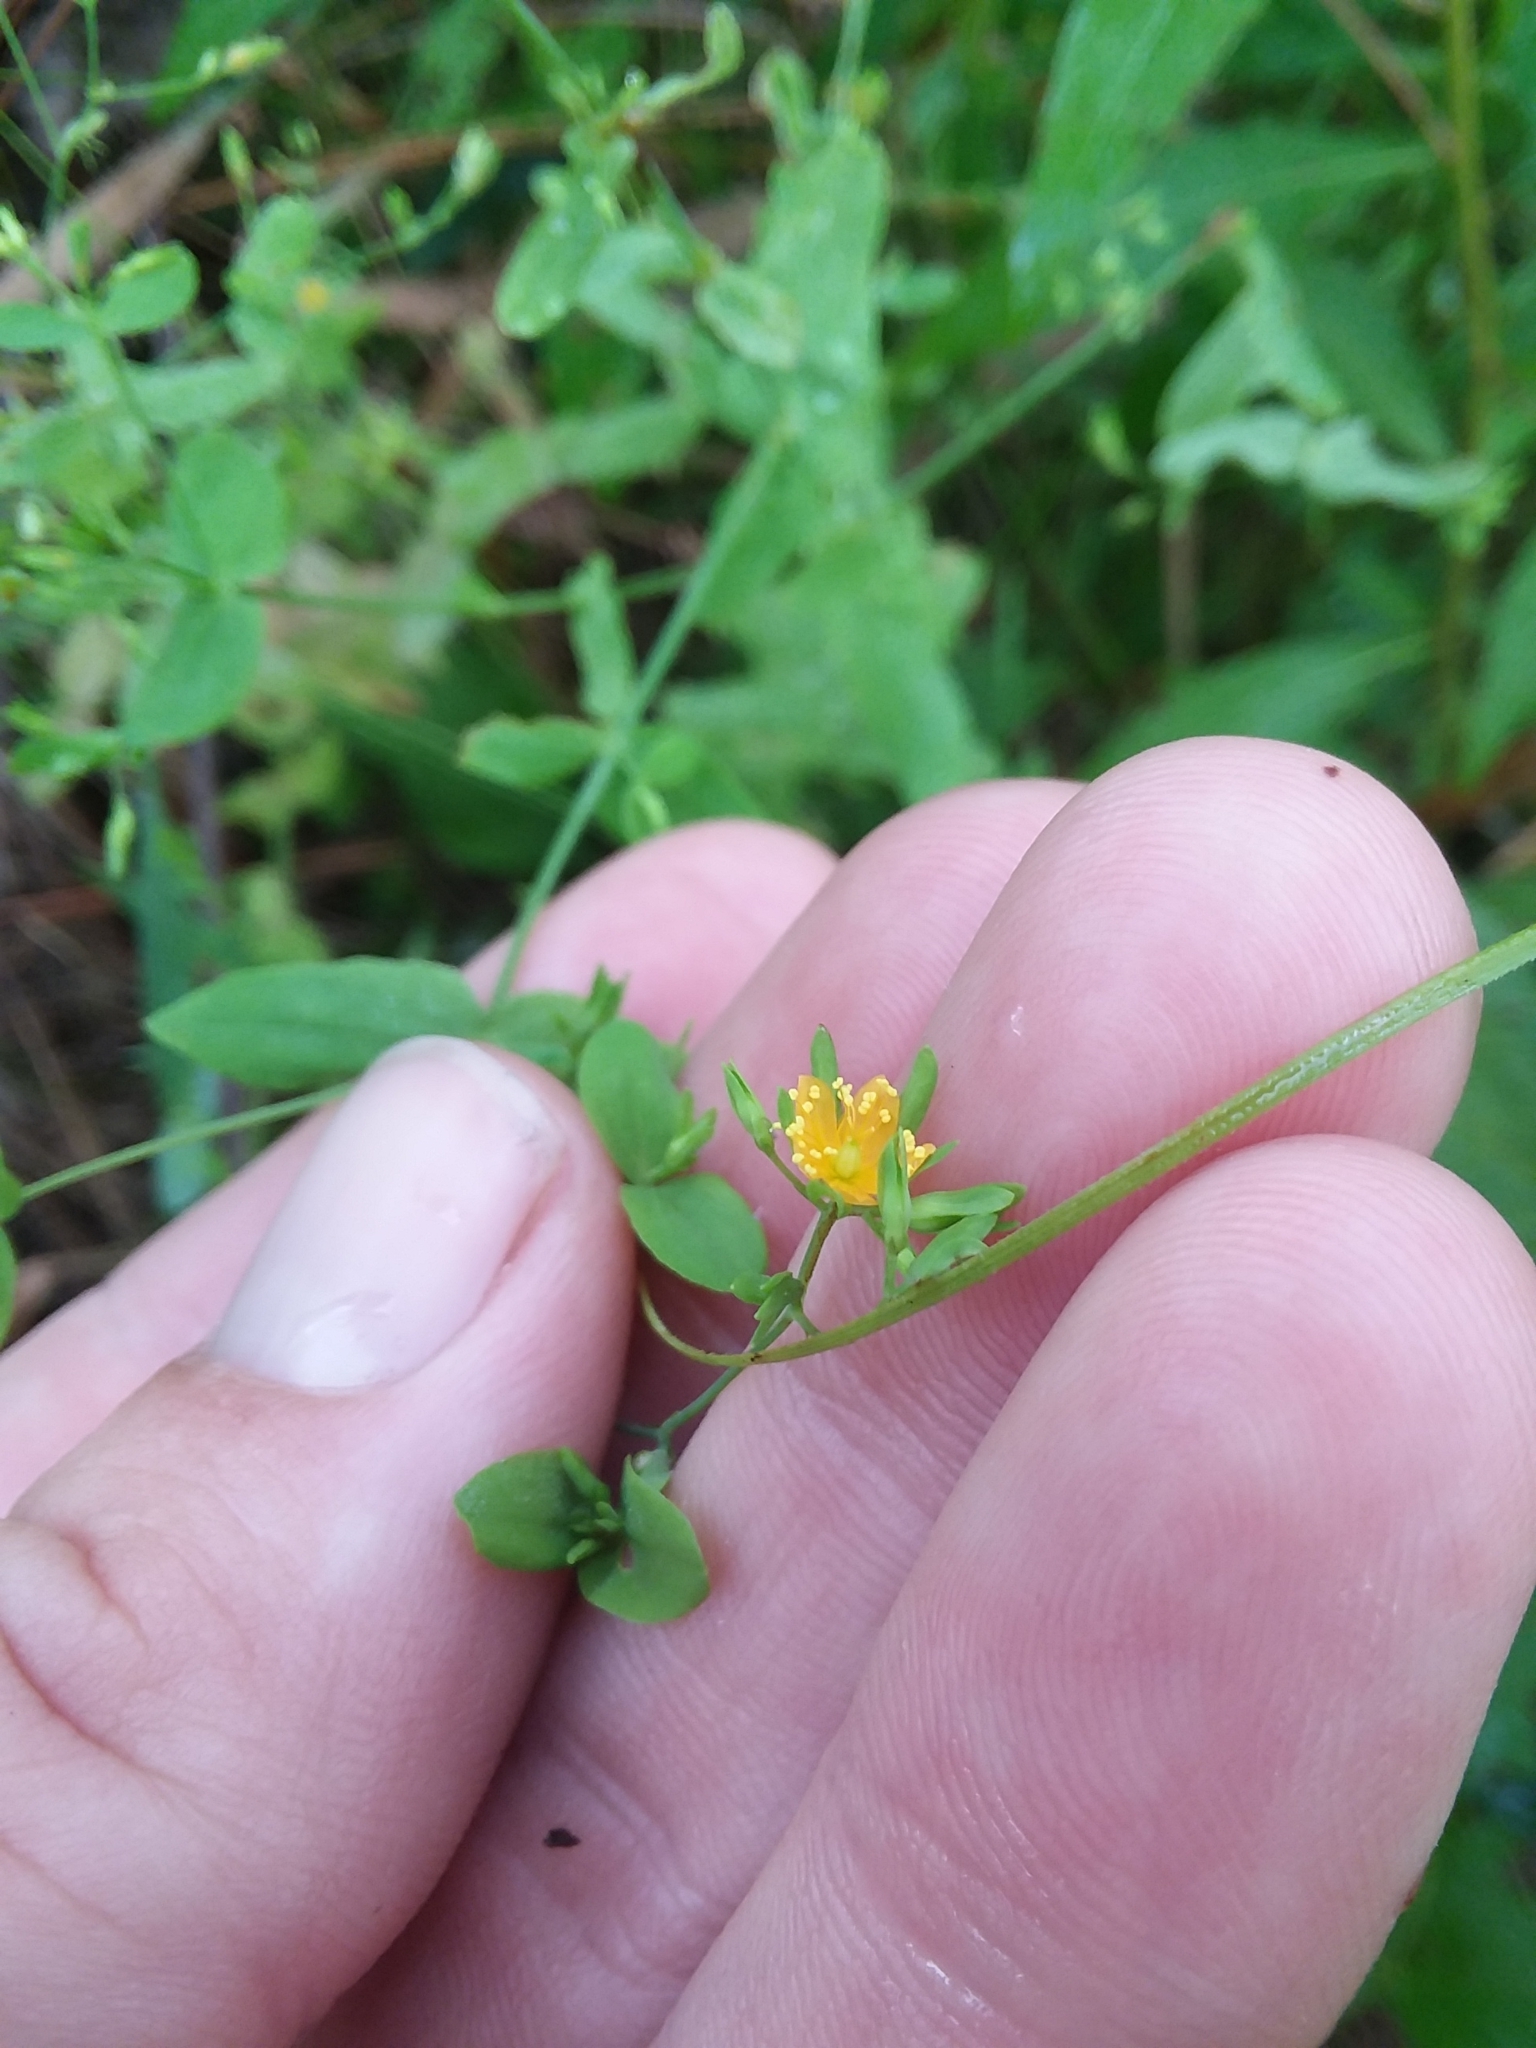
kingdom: Plantae
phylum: Tracheophyta
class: Magnoliopsida
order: Malpighiales
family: Hypericaceae
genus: Hypericum
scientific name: Hypericum mutilum
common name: Dwarf st. john's-wort
